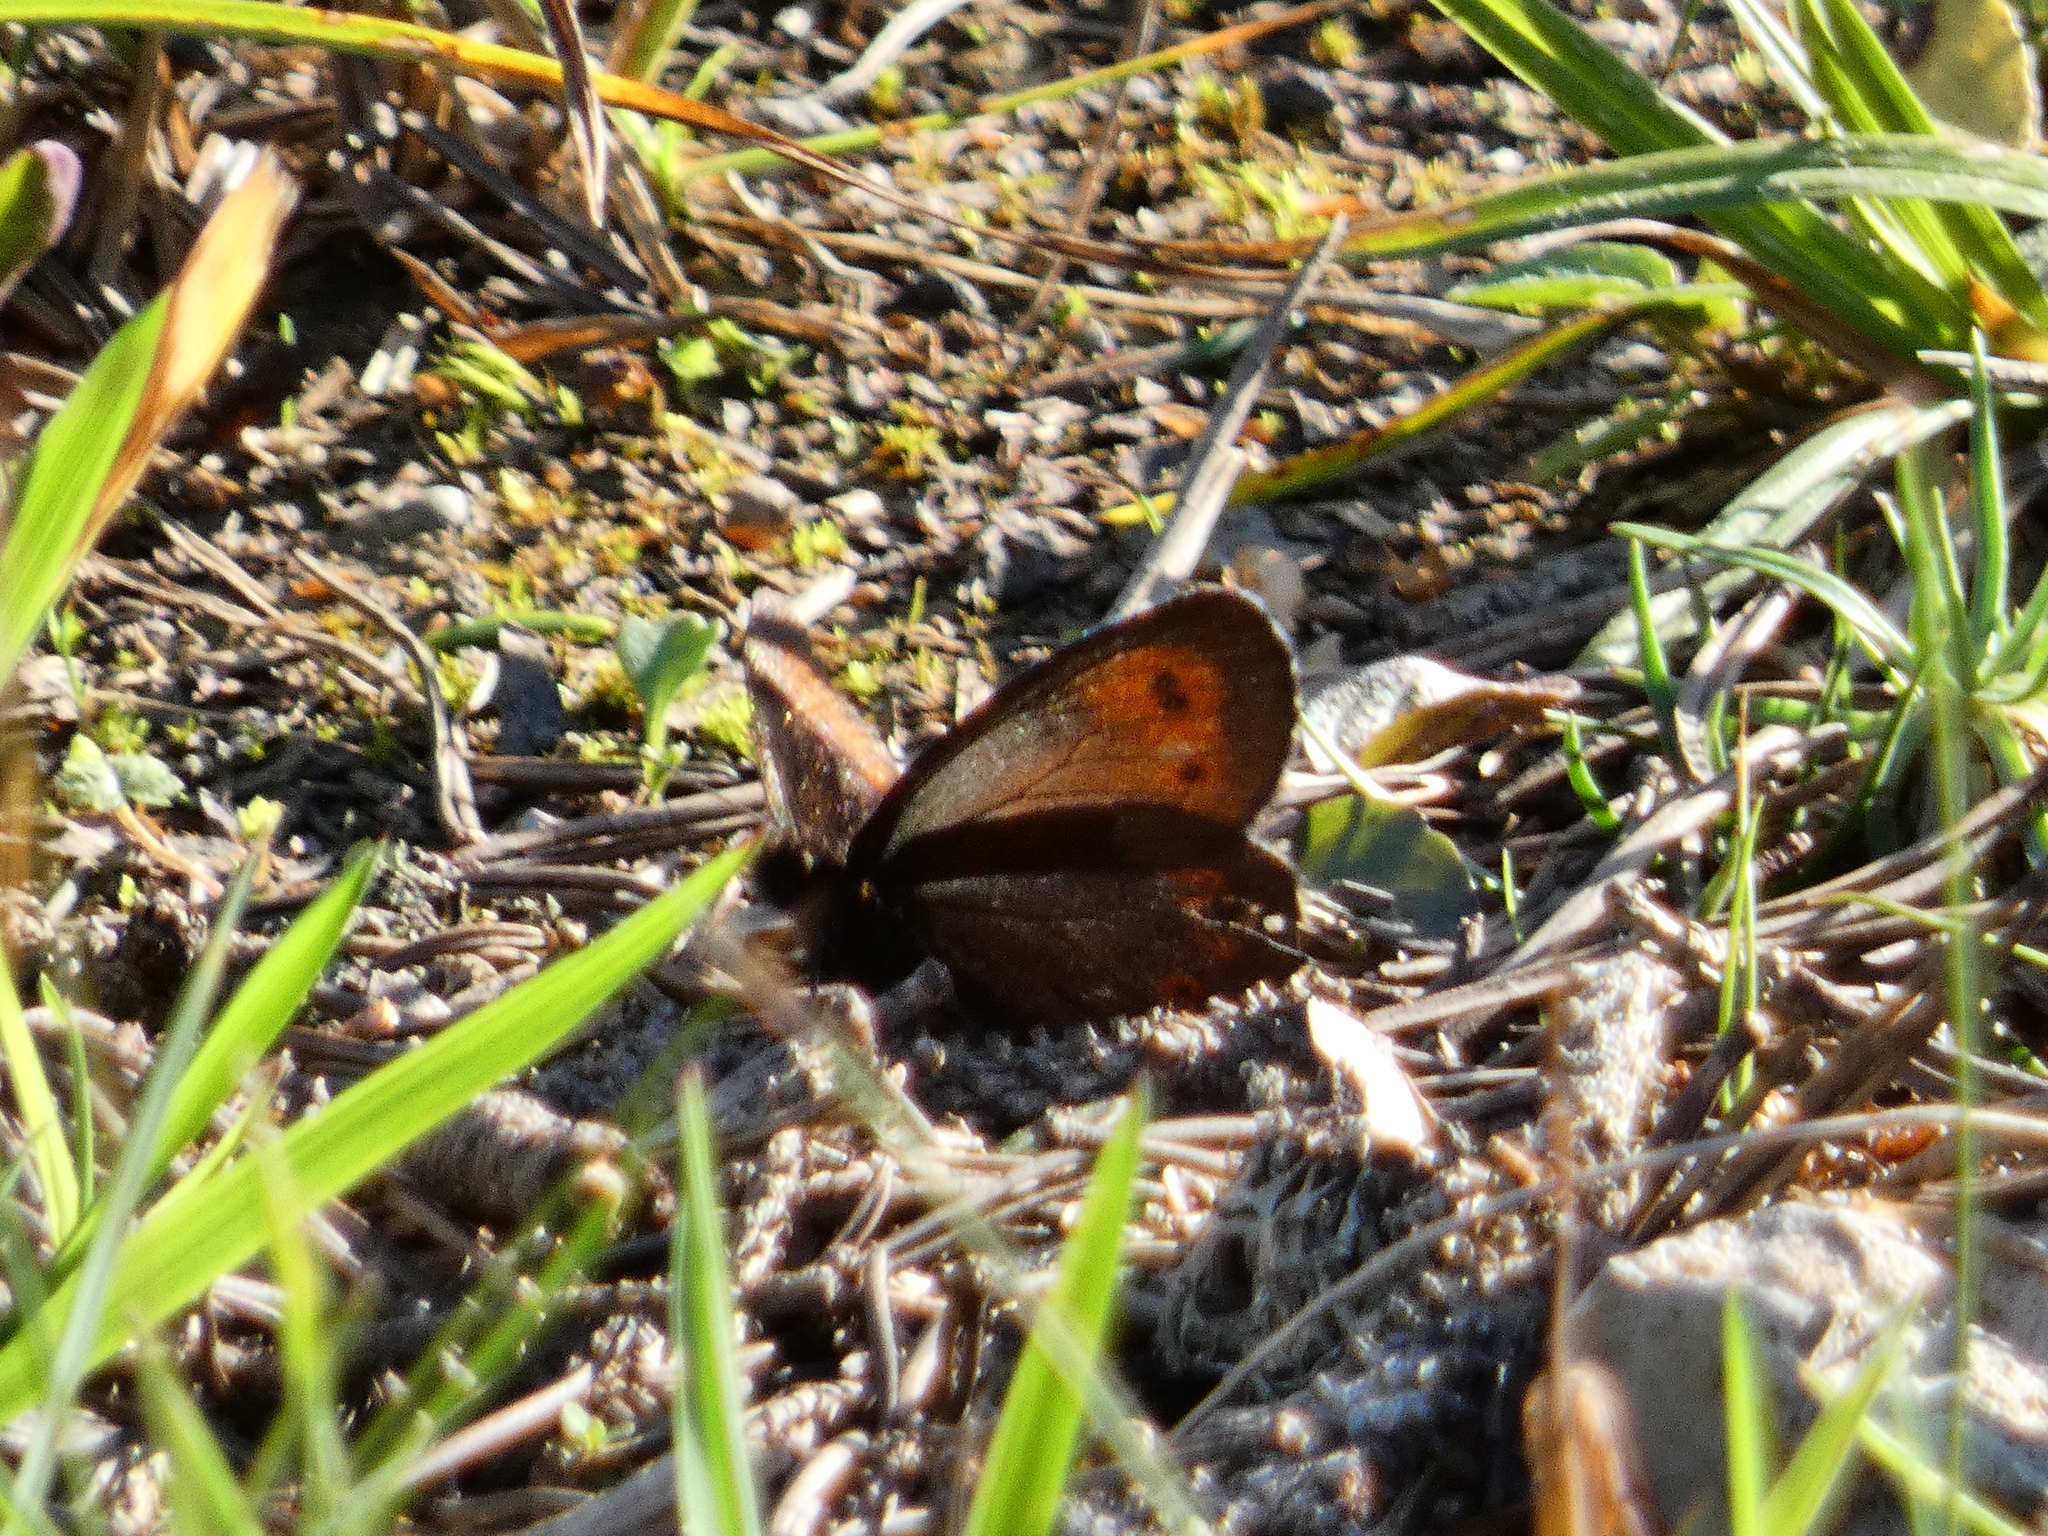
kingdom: Animalia
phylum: Arthropoda
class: Insecta
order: Lepidoptera
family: Nymphalidae
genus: Erebia
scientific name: Erebia euryale
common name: Large ringlet
